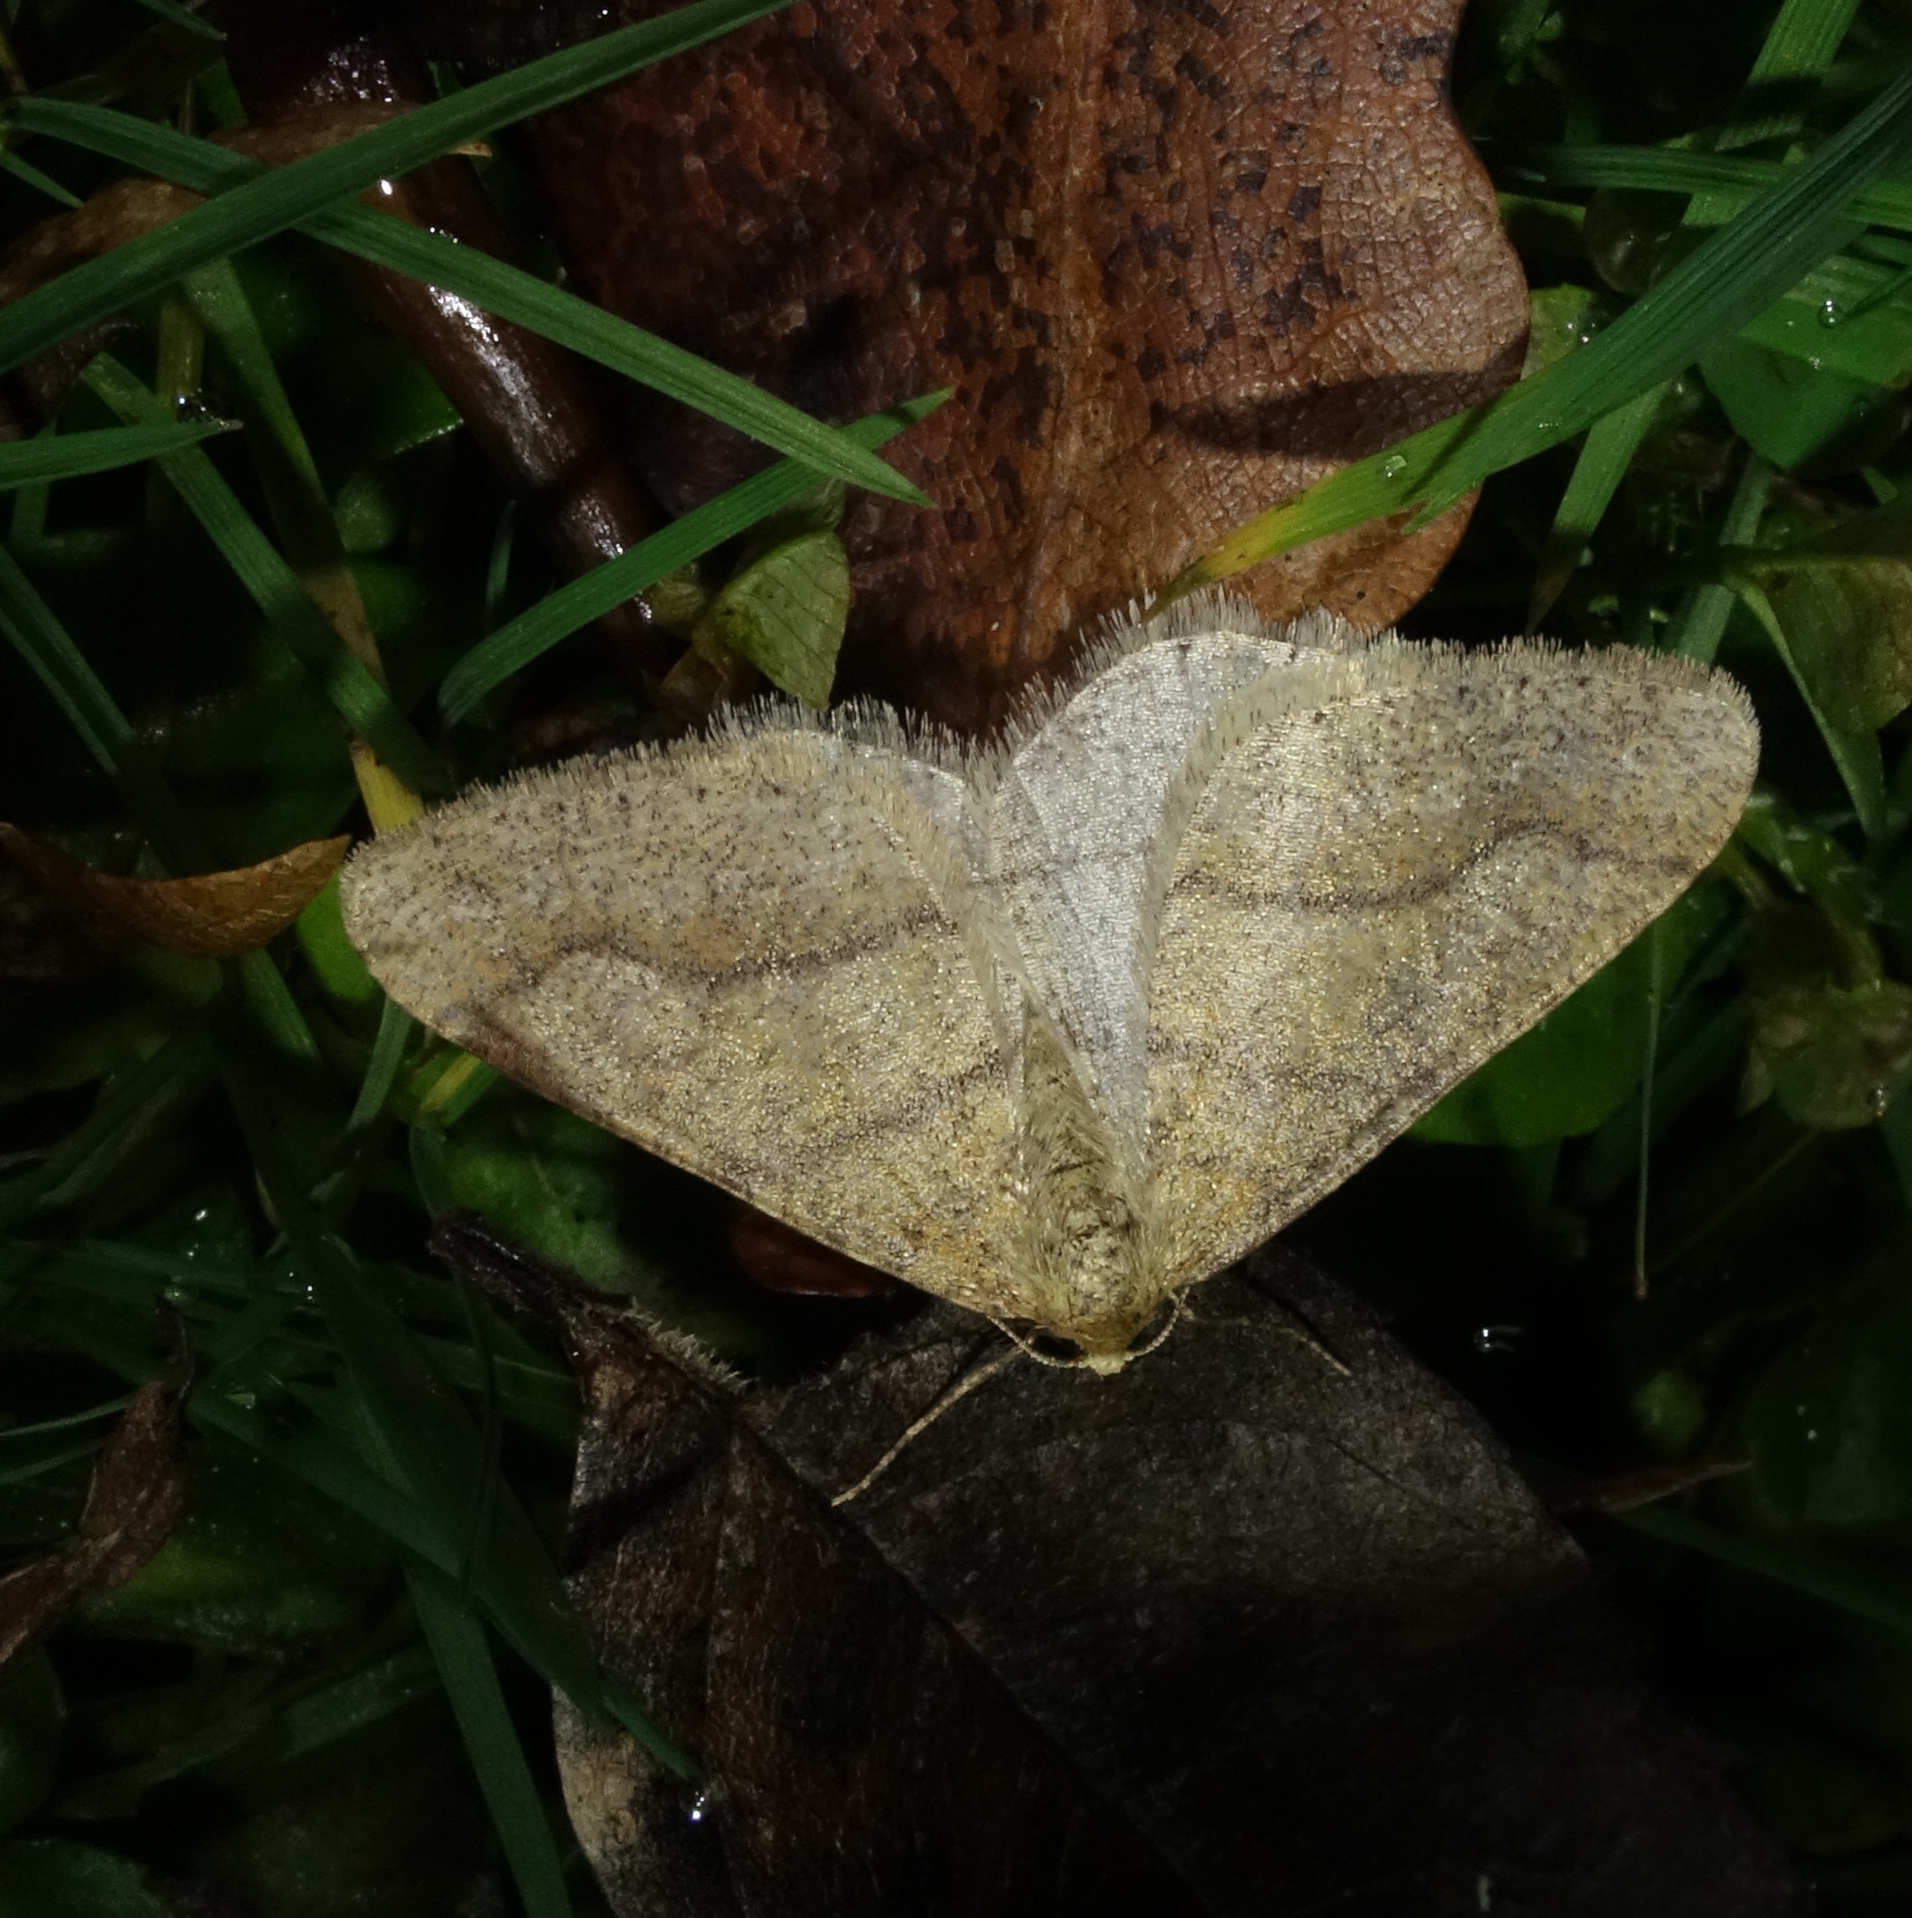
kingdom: Animalia
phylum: Arthropoda
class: Insecta
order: Lepidoptera
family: Geometridae
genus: Agriopis
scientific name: Agriopis marginaria
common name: Dotted border
